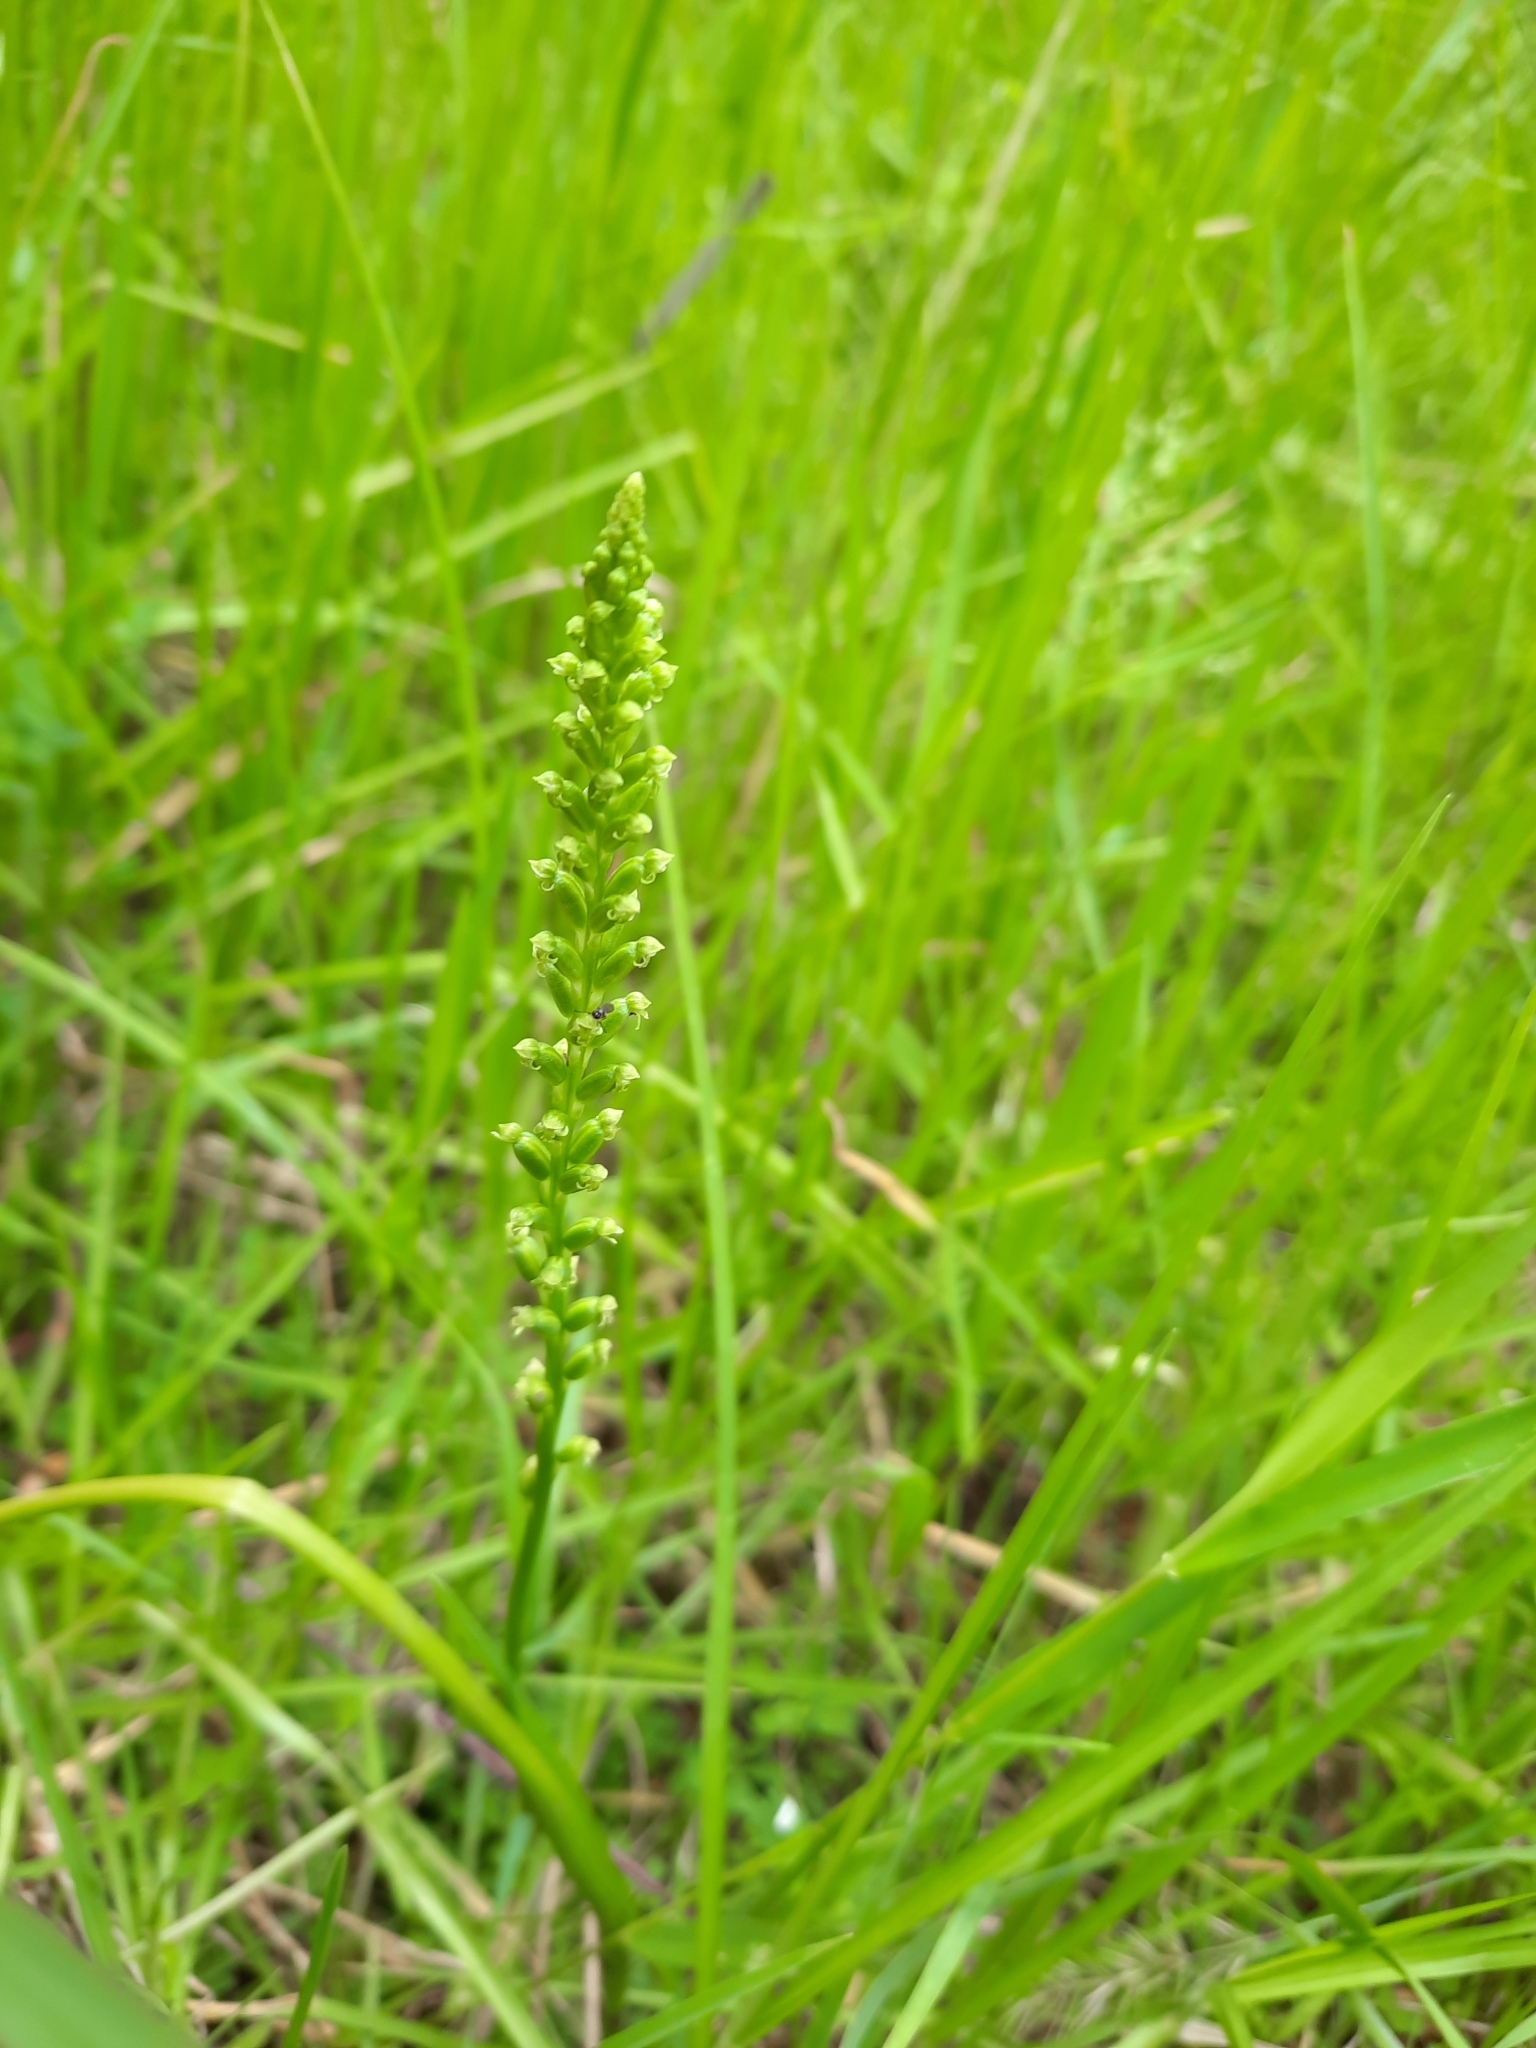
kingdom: Plantae
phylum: Tracheophyta
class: Liliopsida
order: Asparagales
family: Orchidaceae
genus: Microtis
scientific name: Microtis unifolia
